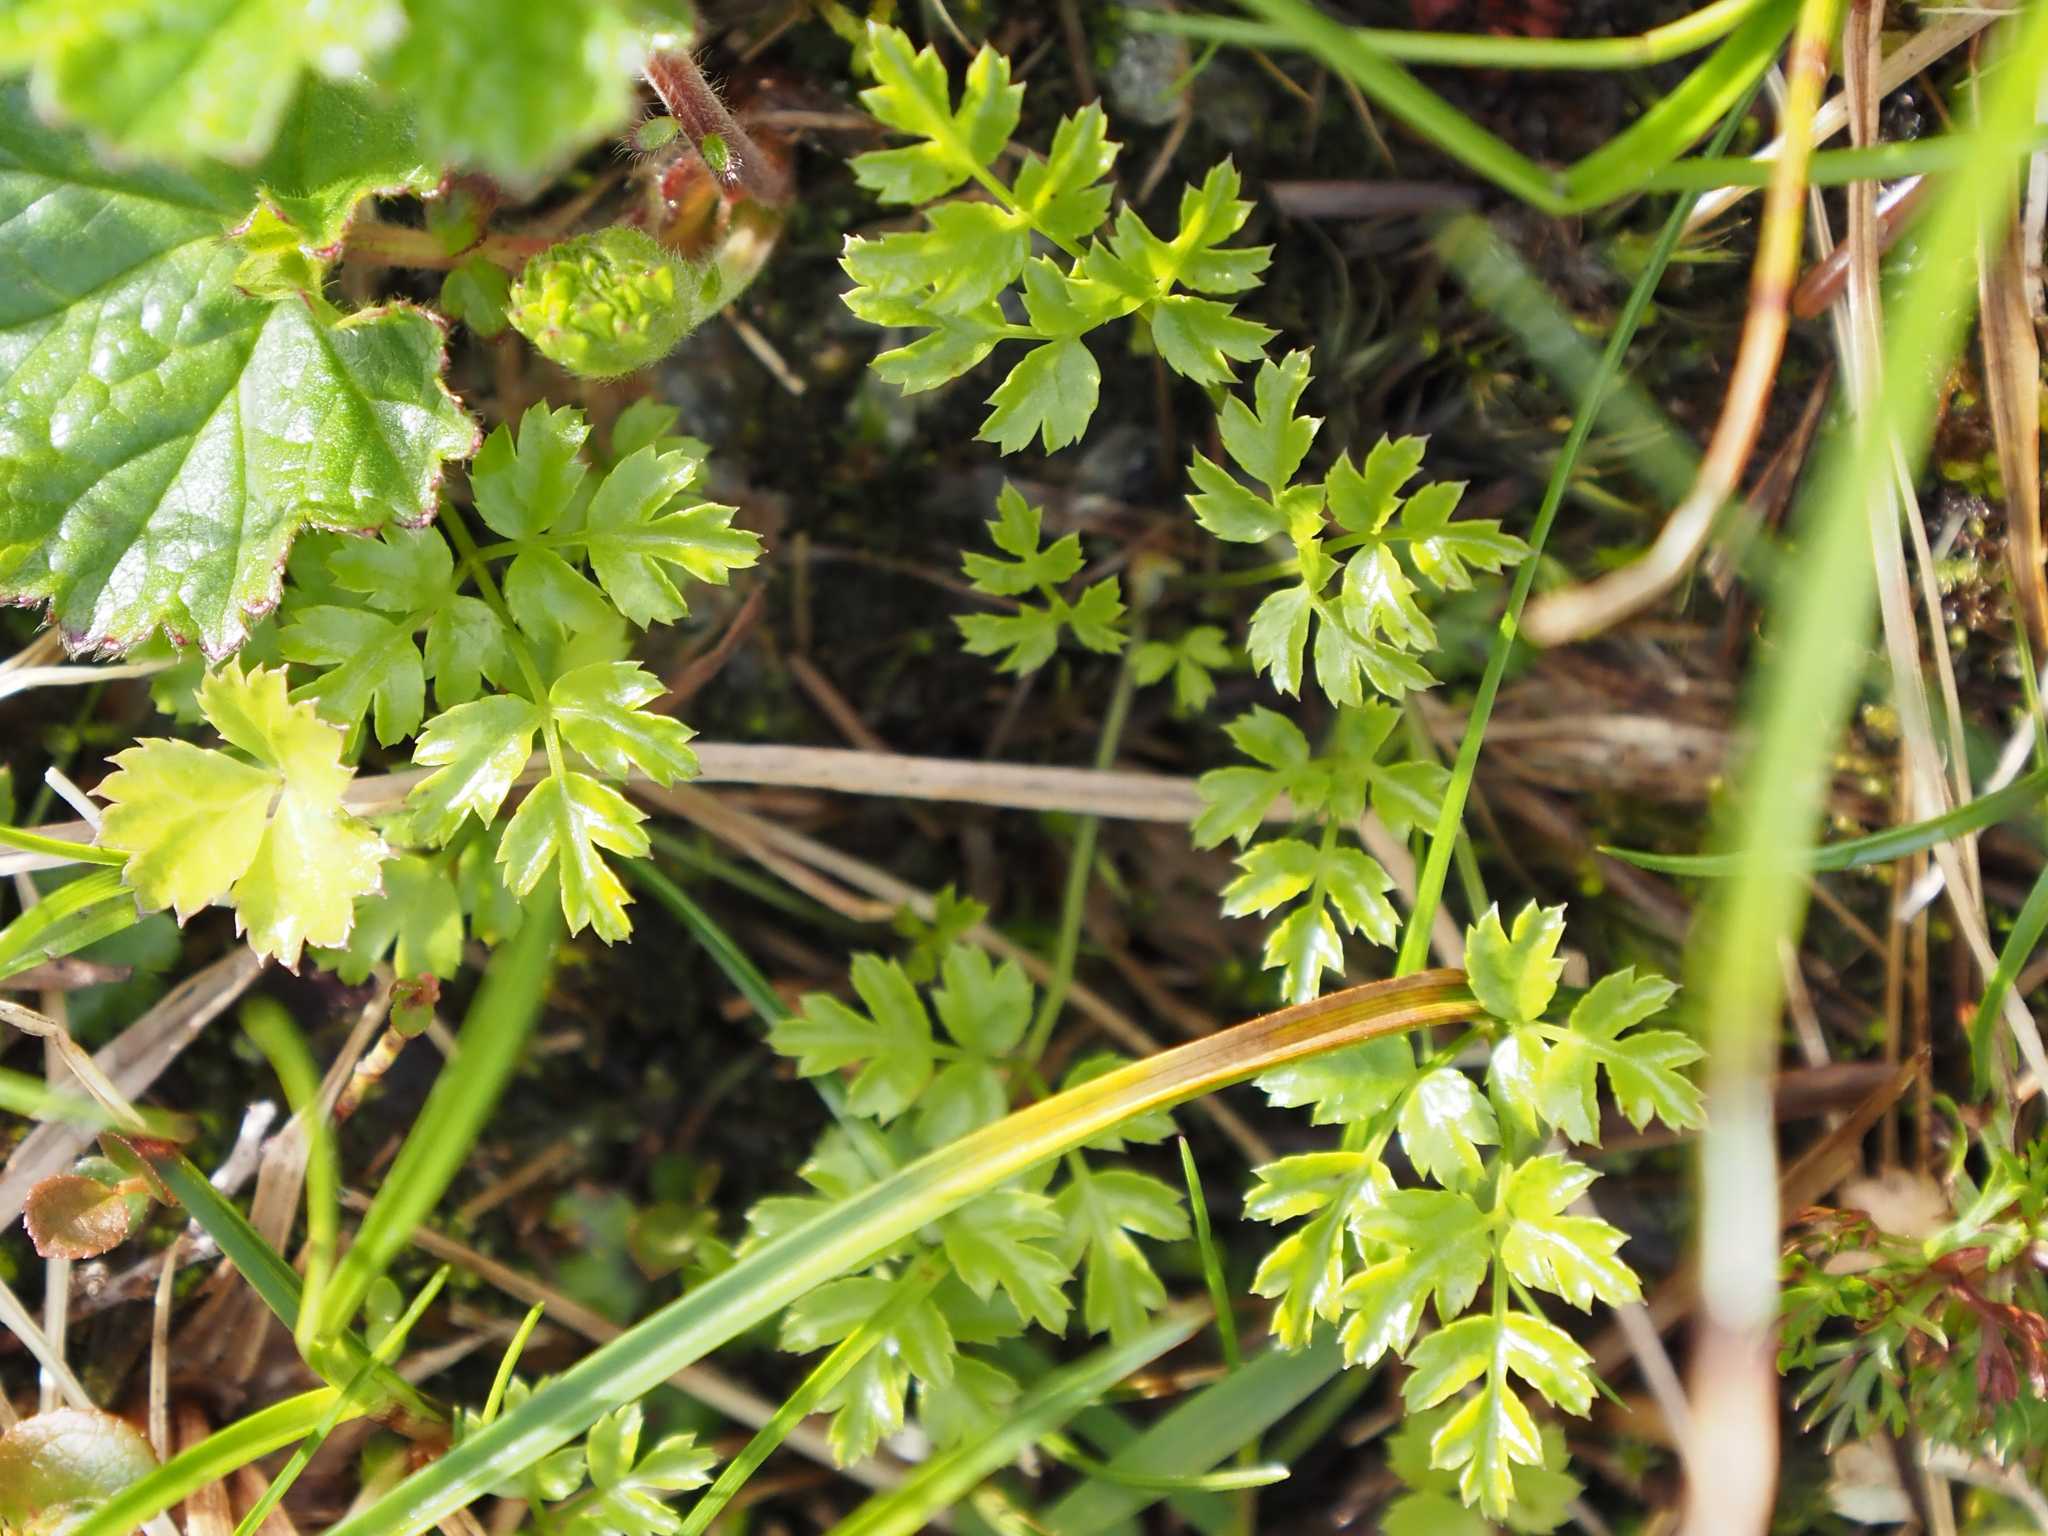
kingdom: Plantae
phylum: Tracheophyta
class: Magnoliopsida
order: Ranunculales
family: Ranunculaceae
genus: Coptis
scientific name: Coptis aspleniifolia
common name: Fern-leaved goldthread
